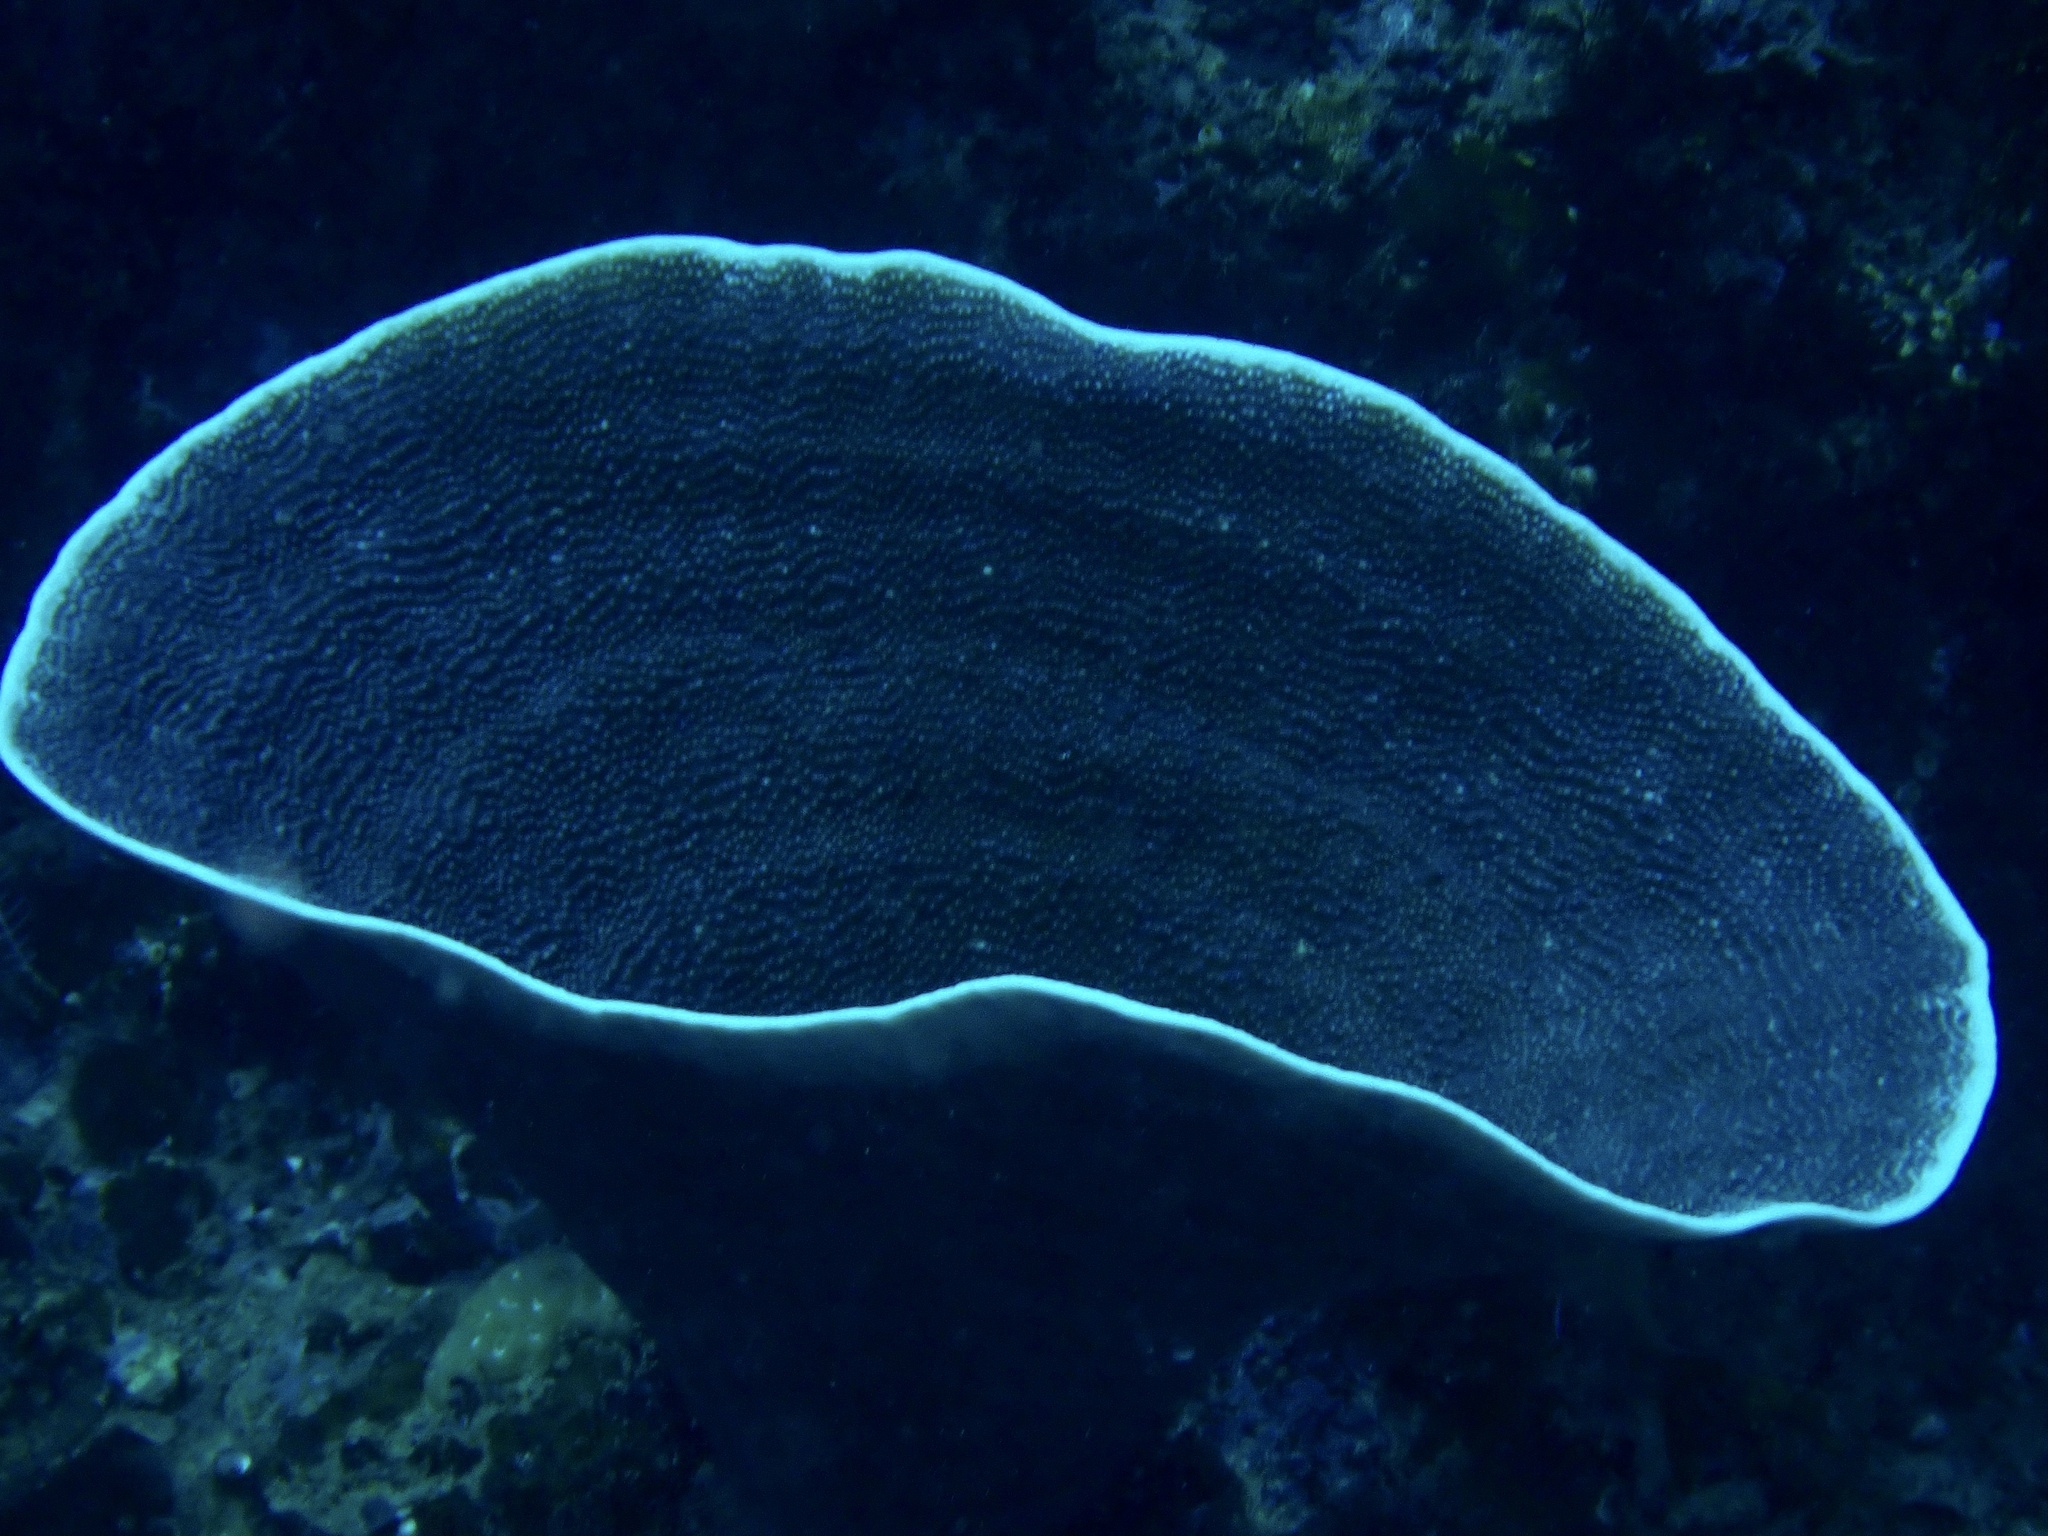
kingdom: Animalia
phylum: Cnidaria
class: Anthozoa
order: Scleractinia
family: Dendrophylliidae
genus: Turbinaria
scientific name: Turbinaria mesenterina
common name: Disc coral
